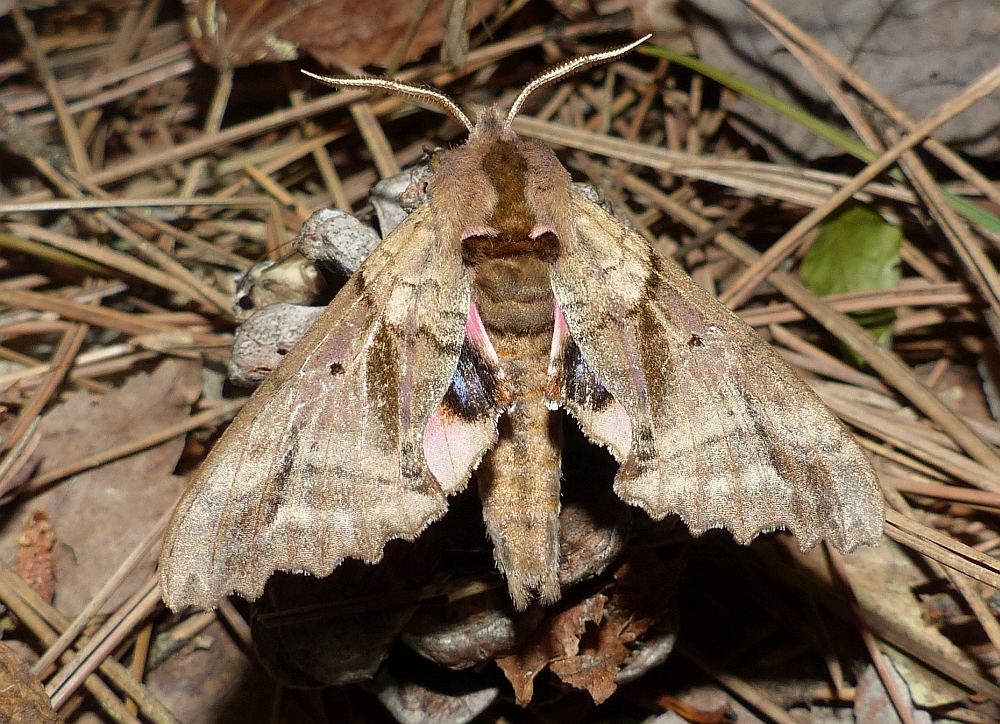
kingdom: Animalia
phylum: Arthropoda
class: Insecta
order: Lepidoptera
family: Sphingidae
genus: Paonias
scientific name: Paonias excaecata
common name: Blind-eyed sphinx
